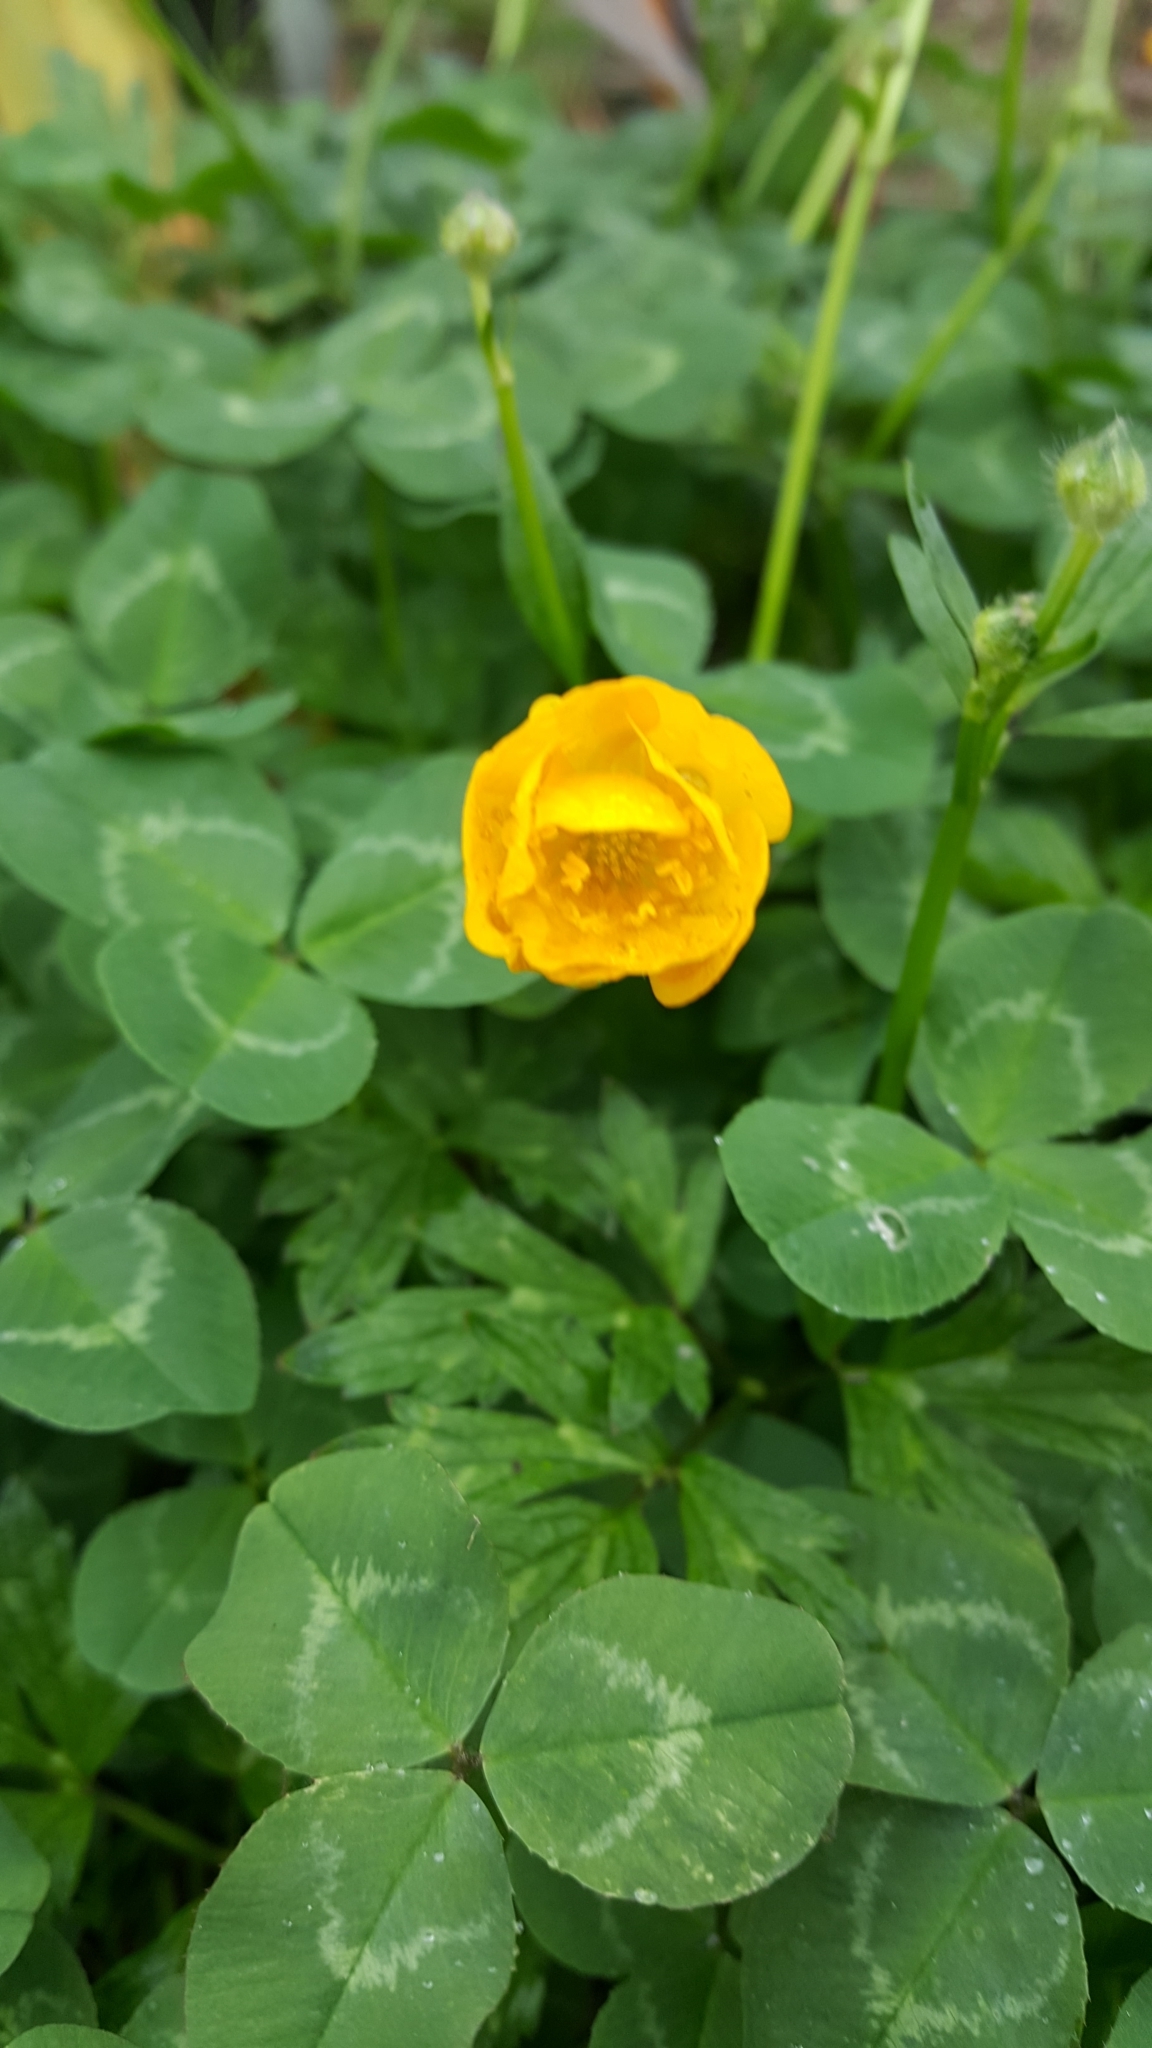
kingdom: Plantae
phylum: Tracheophyta
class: Magnoliopsida
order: Ranunculales
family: Ranunculaceae
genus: Ranunculus
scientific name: Ranunculus repens
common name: Creeping buttercup
